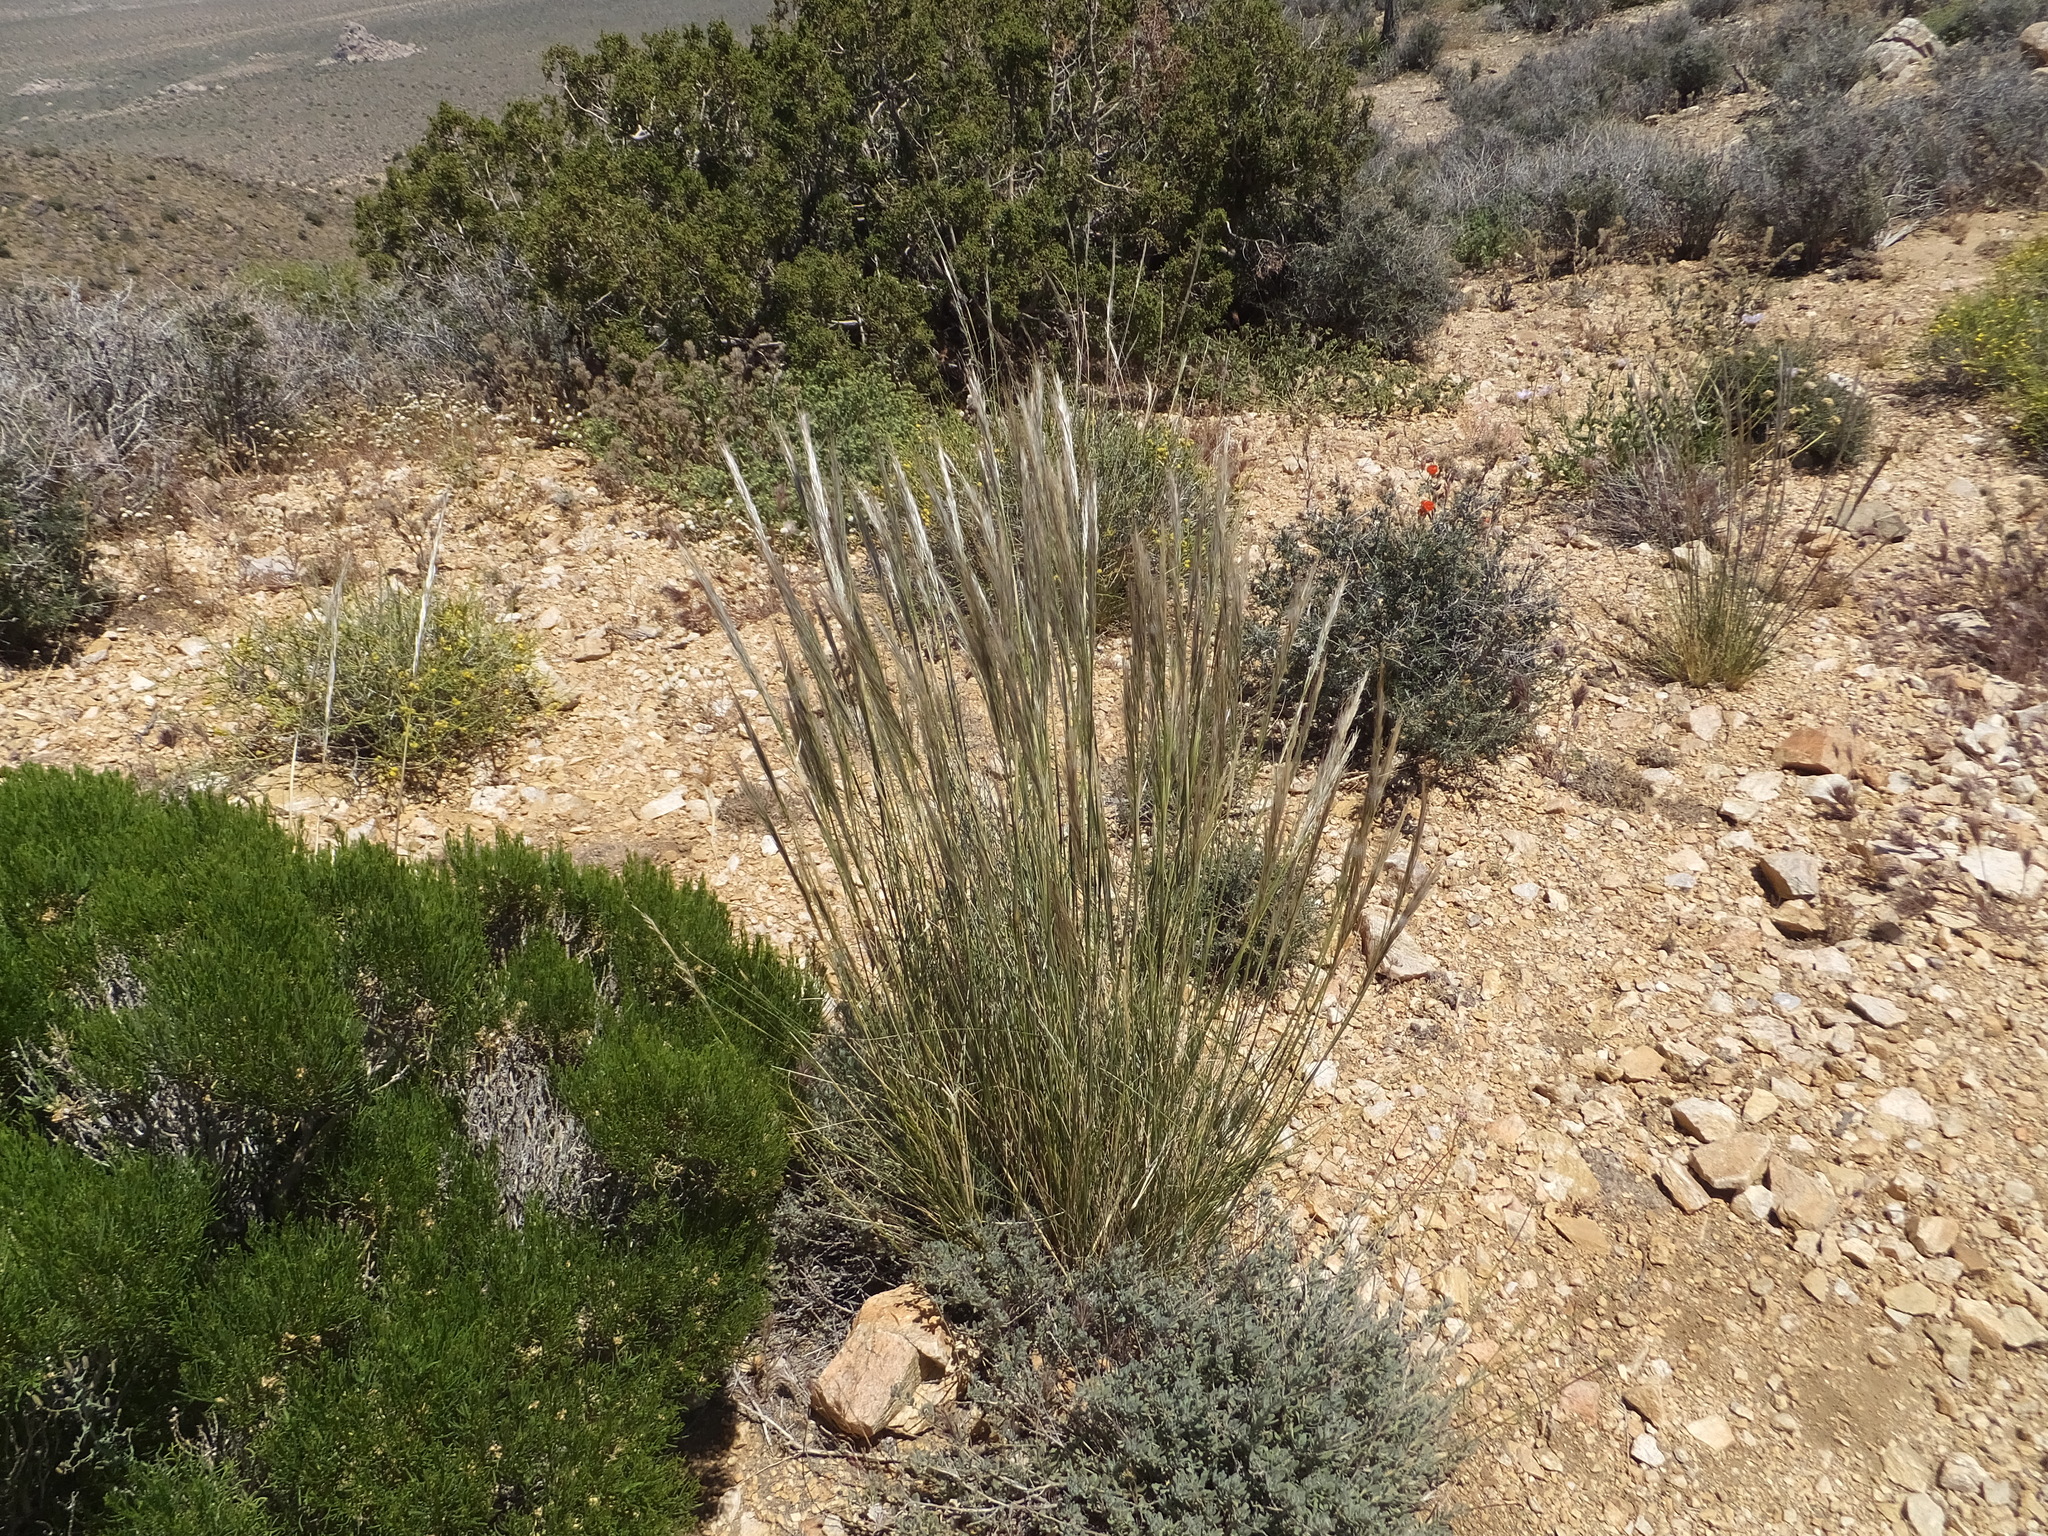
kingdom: Plantae
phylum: Tracheophyta
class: Liliopsida
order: Poales
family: Poaceae
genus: Pappostipa
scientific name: Pappostipa speciosa
